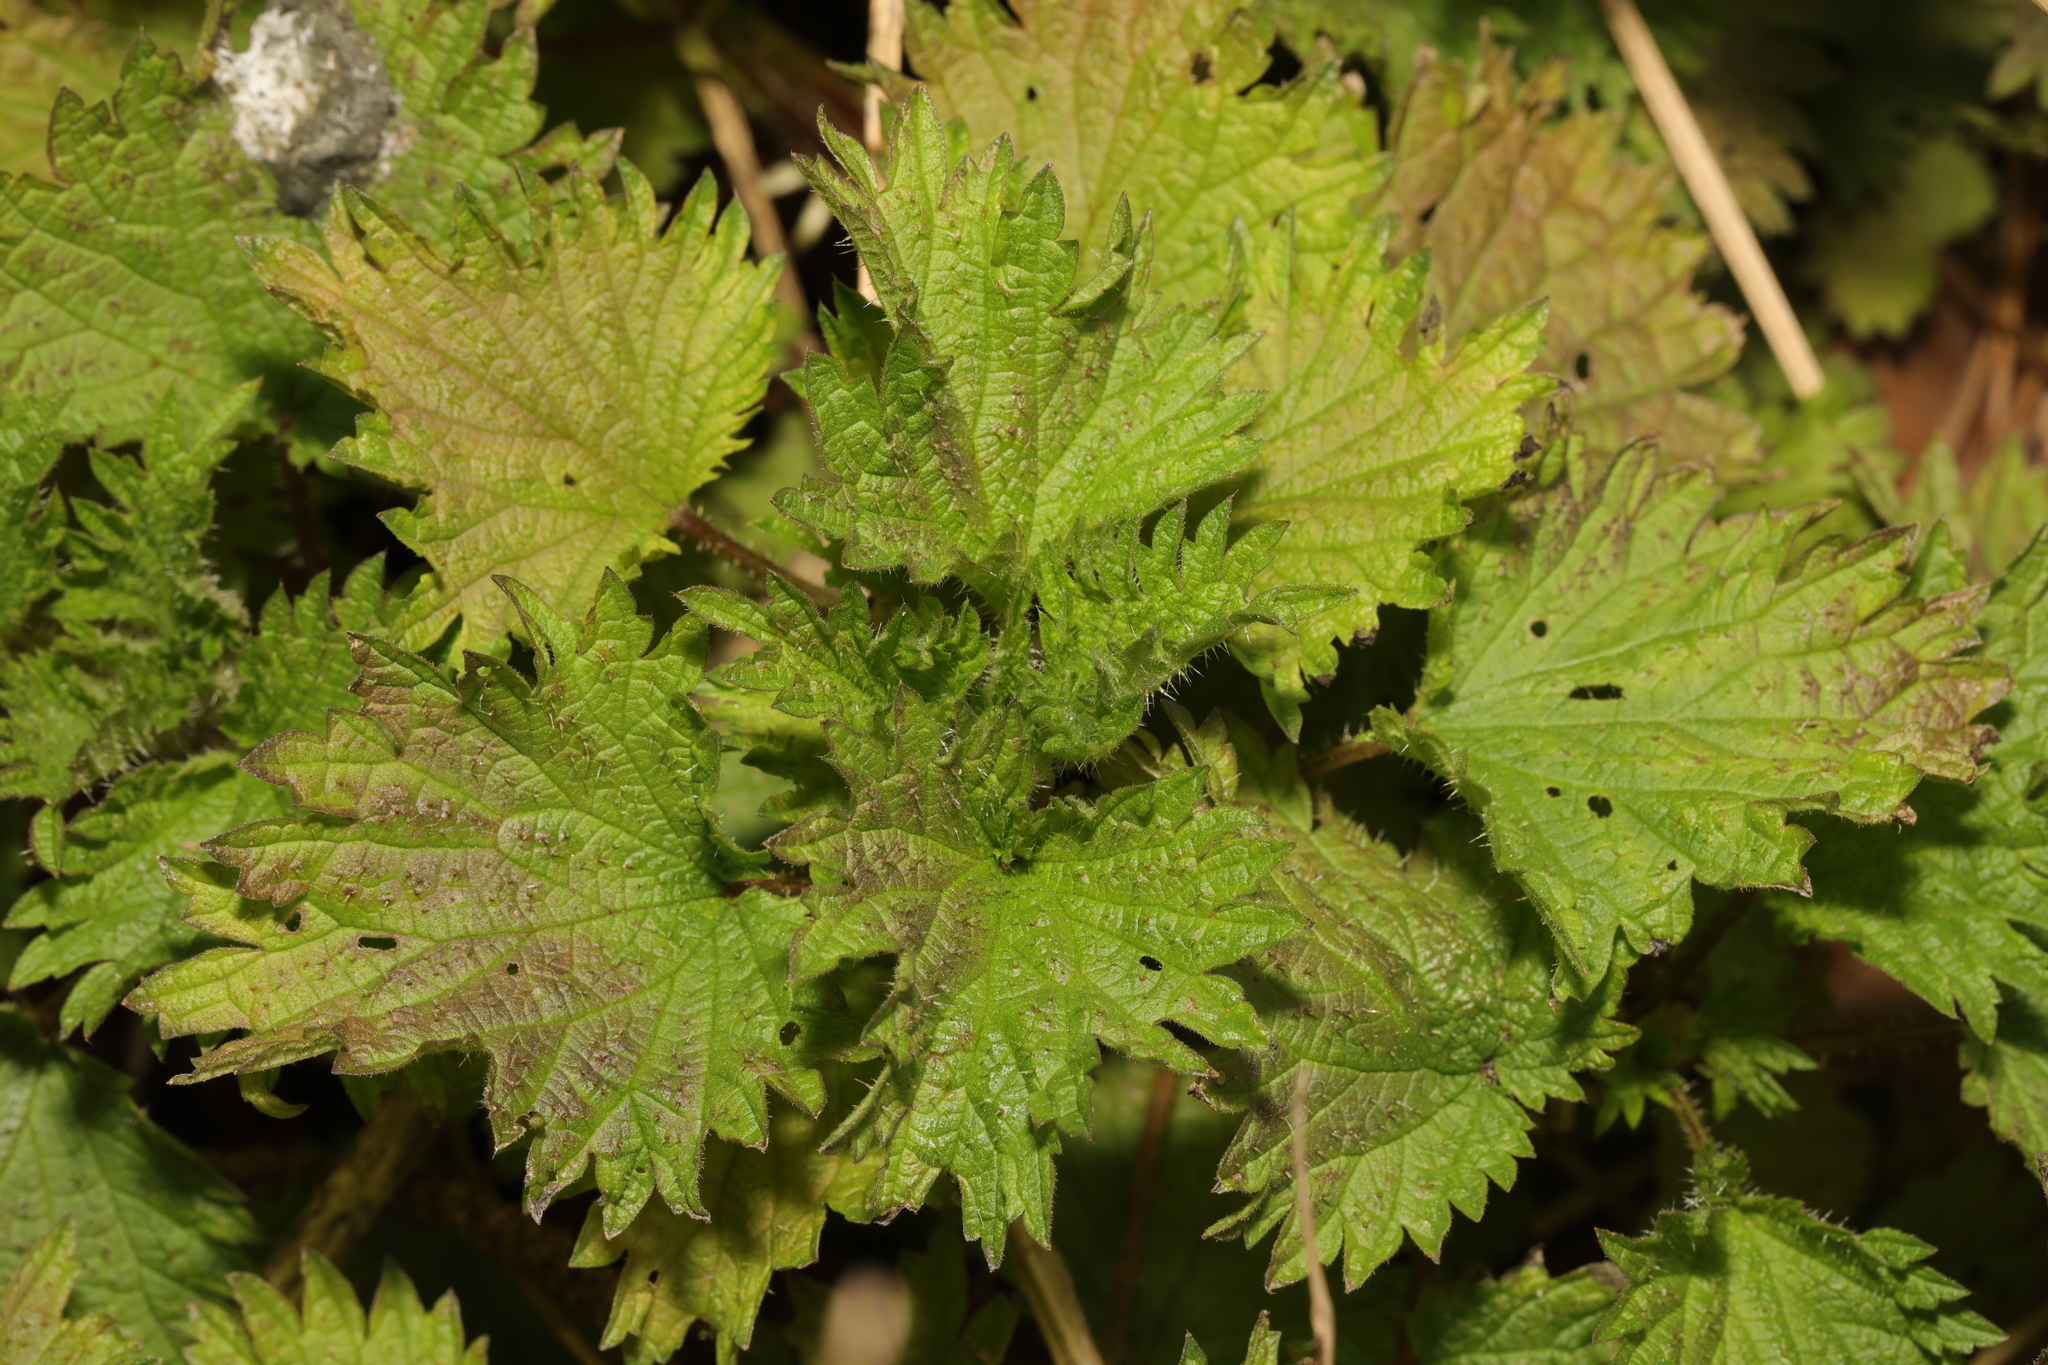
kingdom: Plantae
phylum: Tracheophyta
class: Magnoliopsida
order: Rosales
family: Urticaceae
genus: Urtica
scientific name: Urtica dioica
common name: Common nettle
